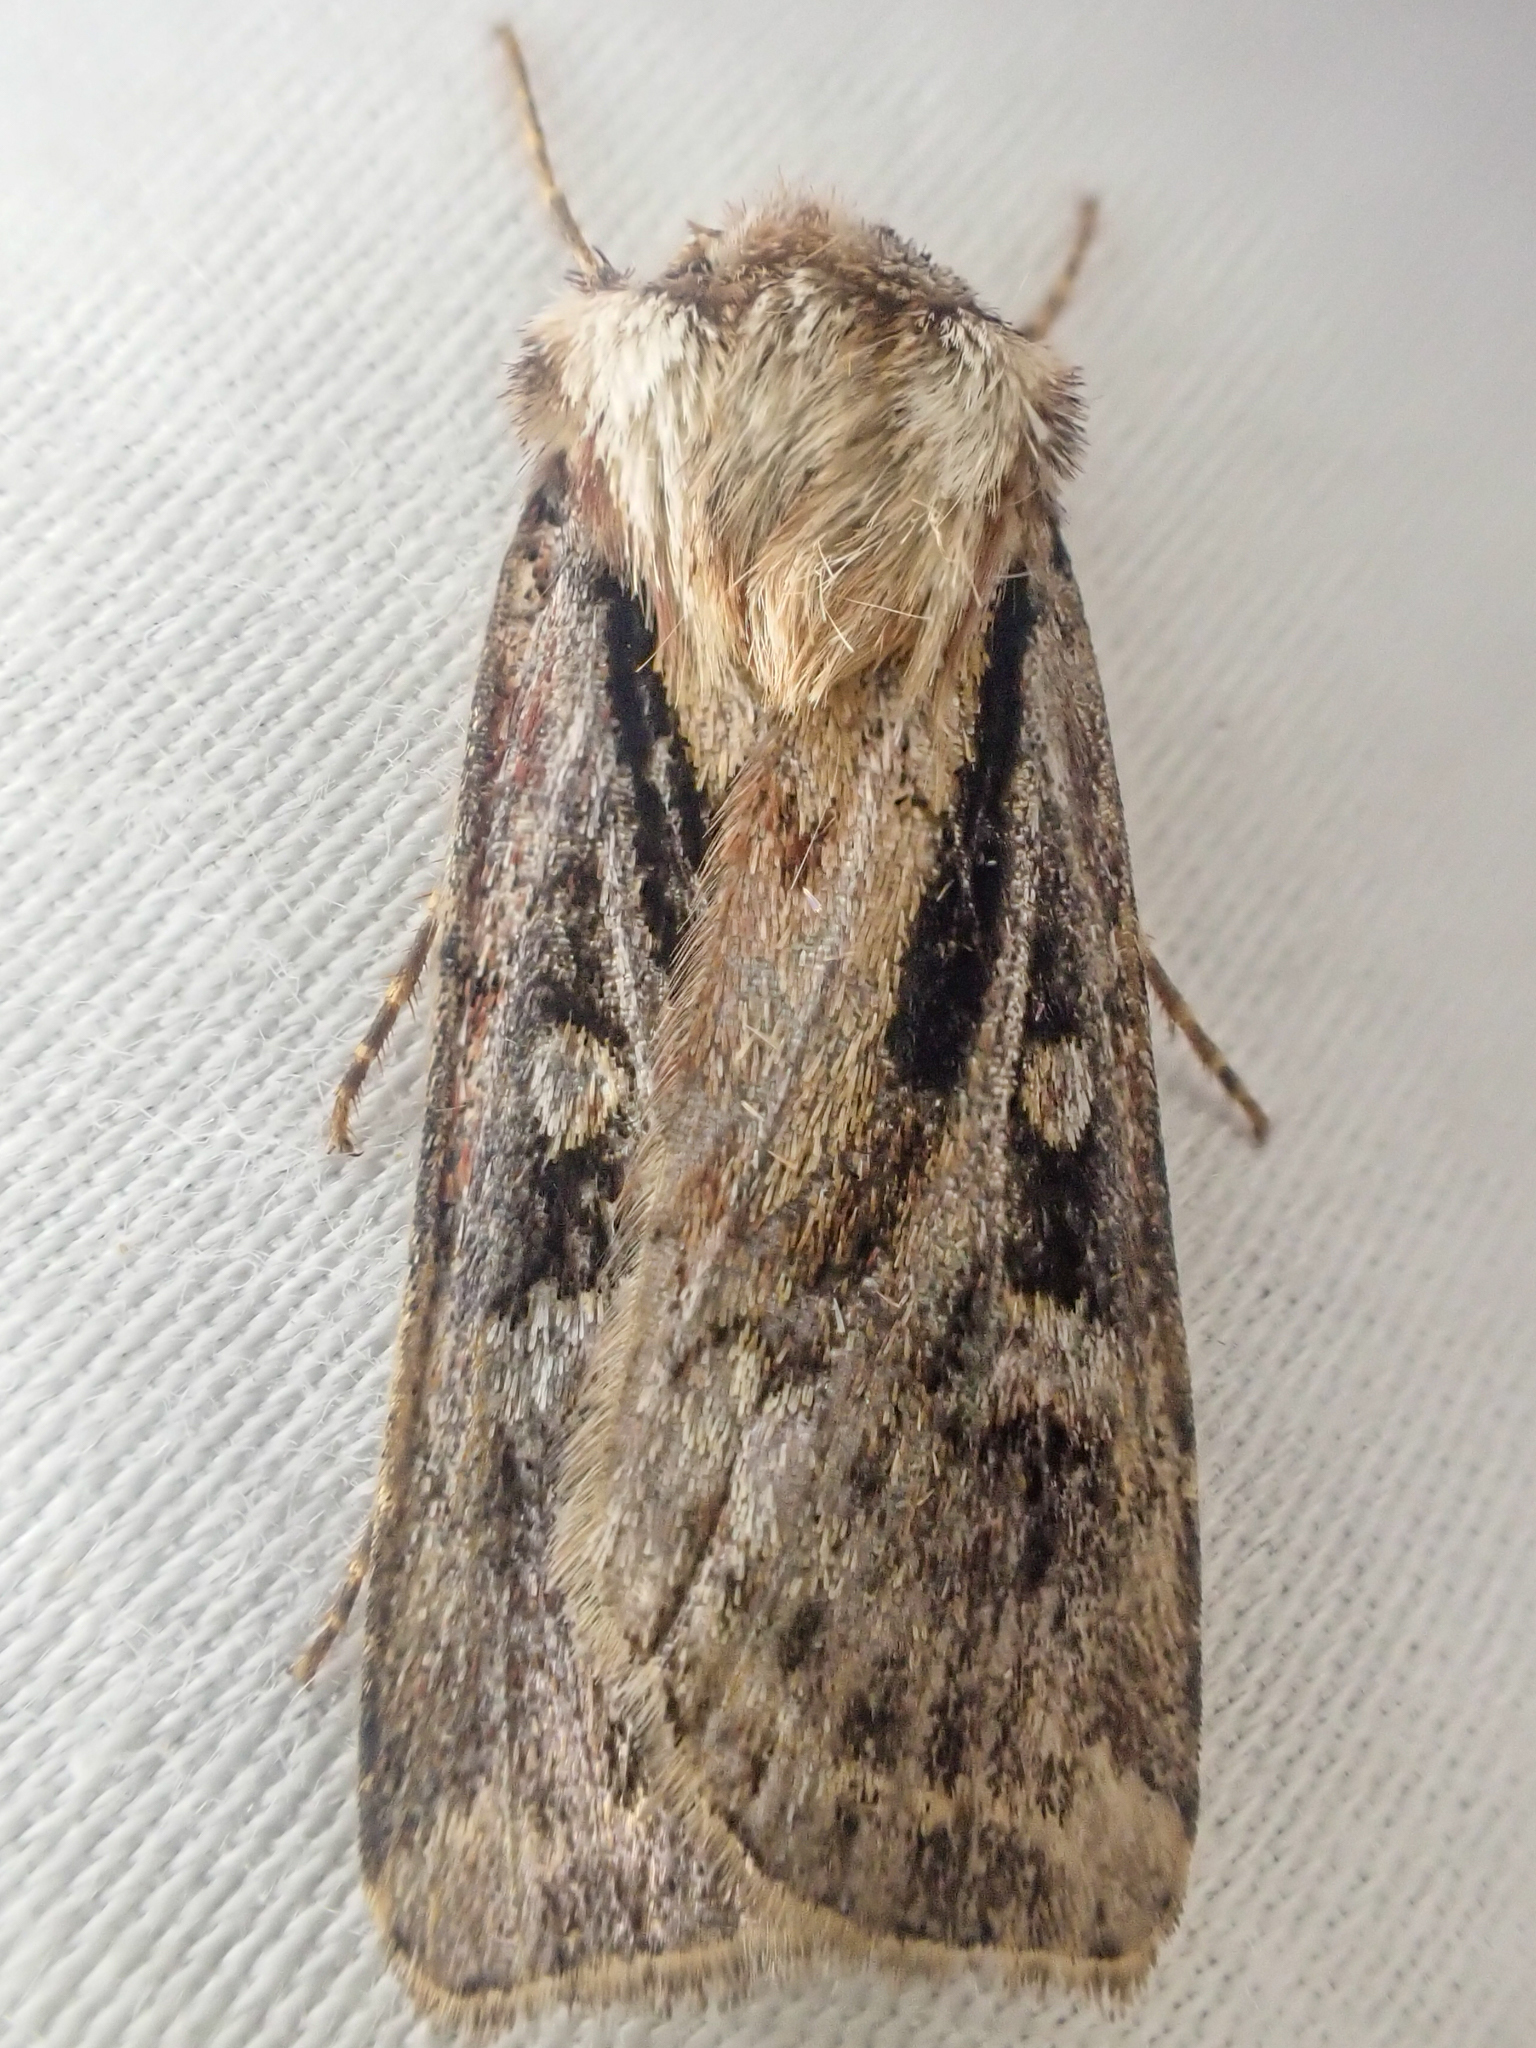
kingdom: Animalia
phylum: Arthropoda
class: Insecta
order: Lepidoptera
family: Noctuidae
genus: Agrotis
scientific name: Agrotis vancouverensis
